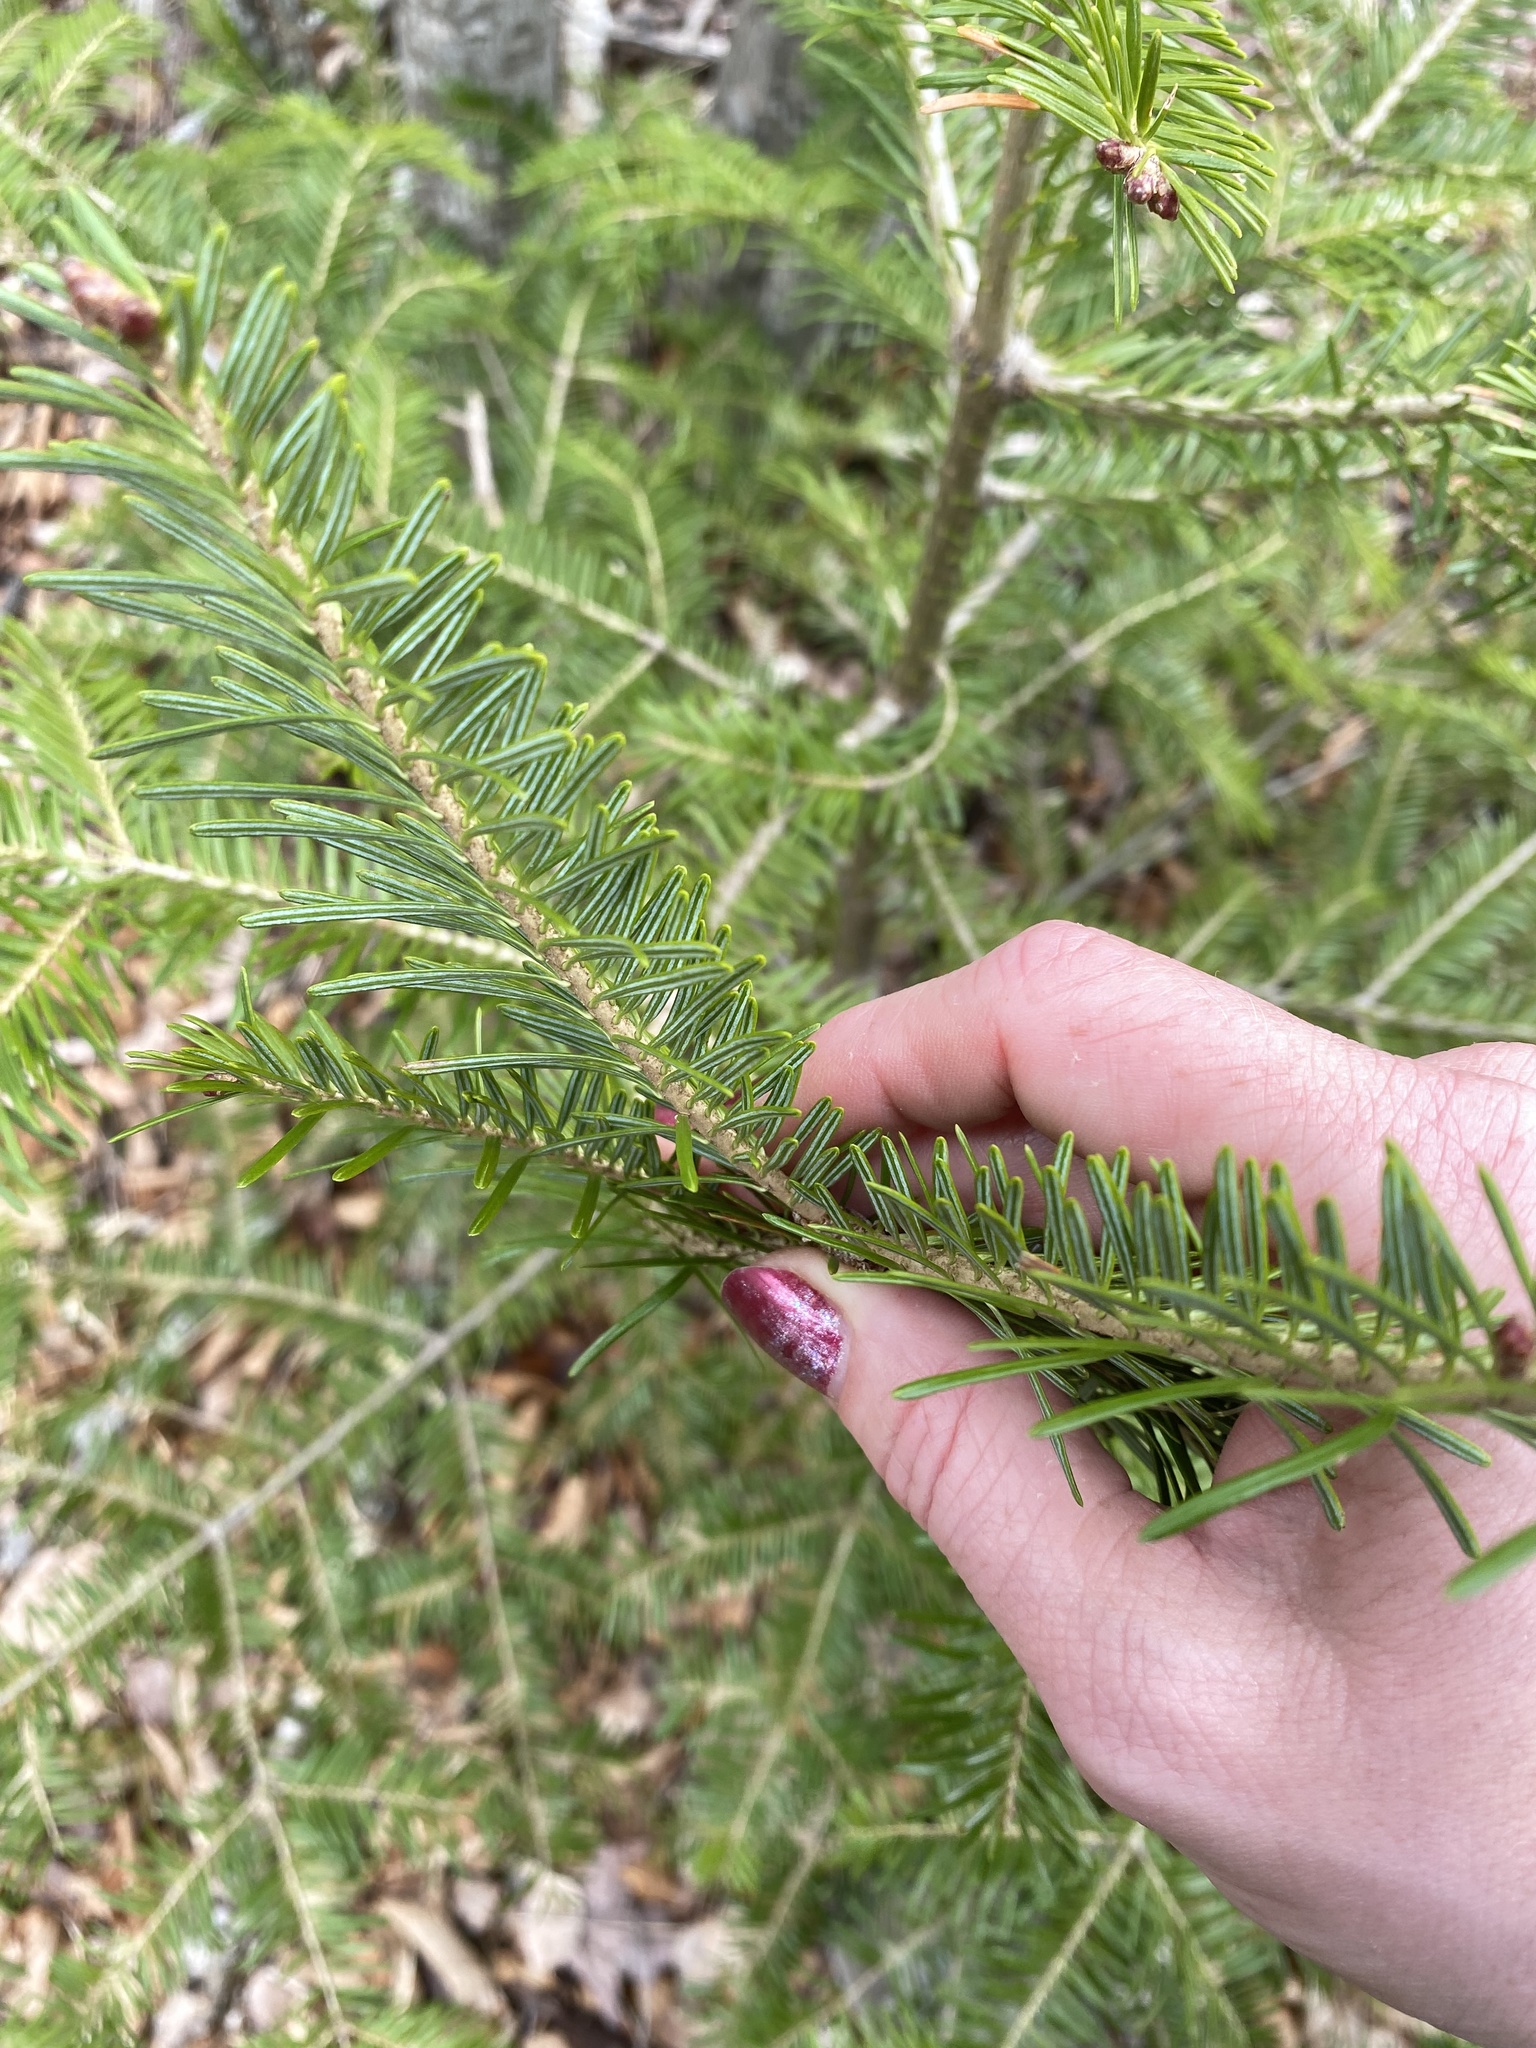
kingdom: Plantae
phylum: Tracheophyta
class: Pinopsida
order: Pinales
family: Pinaceae
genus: Abies
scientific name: Abies balsamea
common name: Balsam fir
